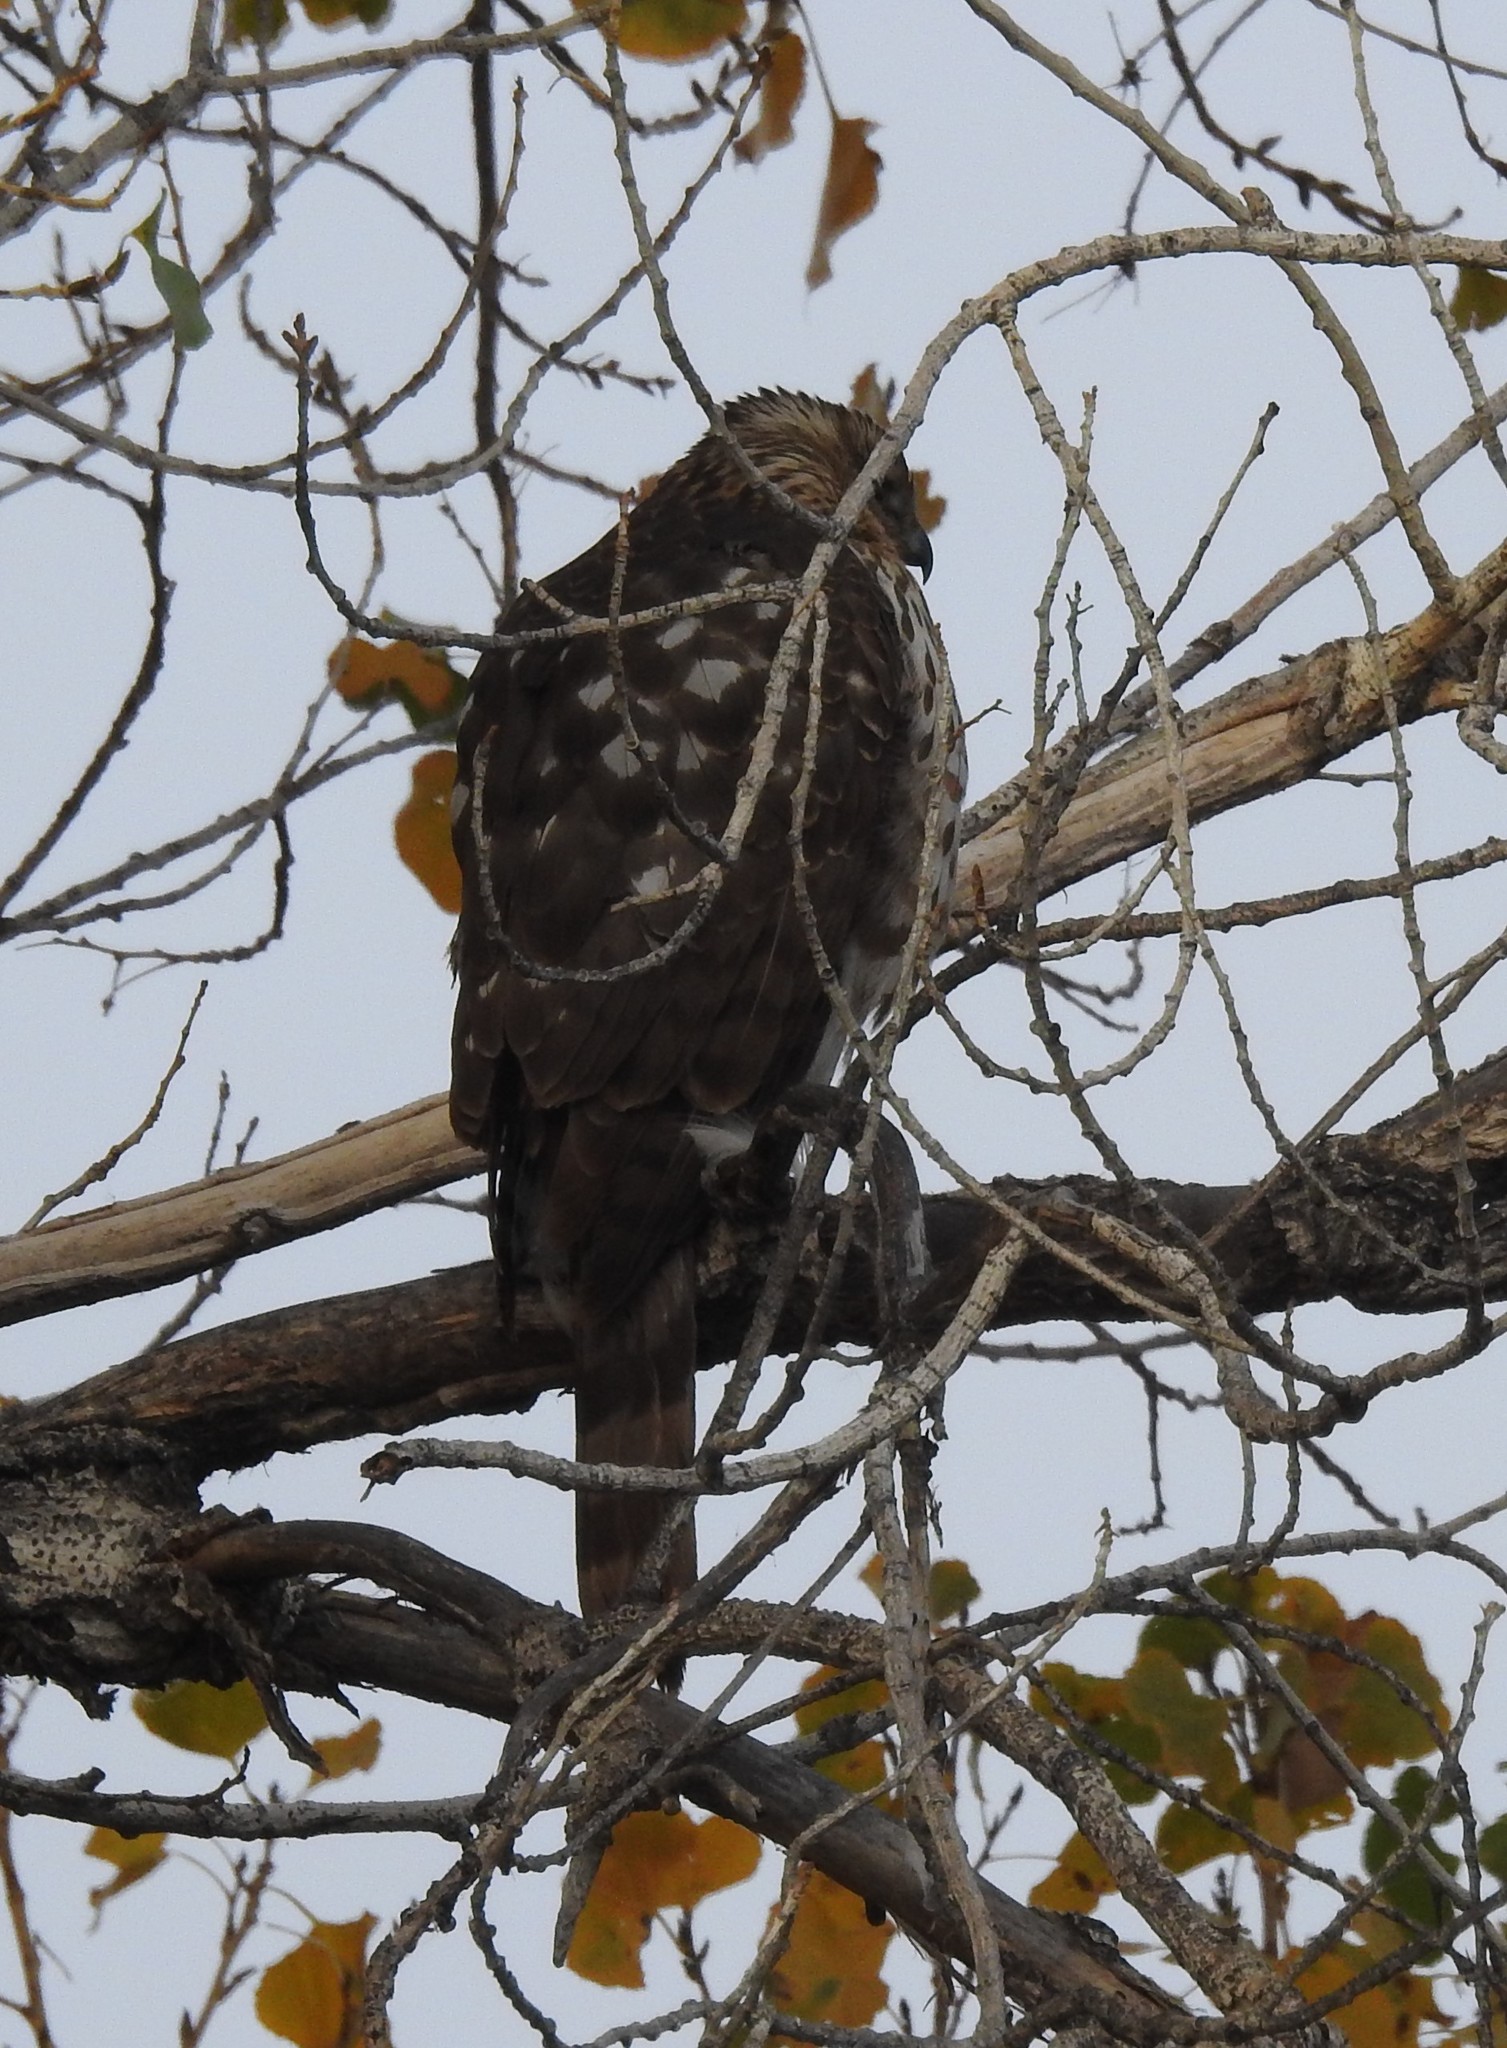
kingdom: Animalia
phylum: Chordata
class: Aves
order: Accipitriformes
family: Accipitridae
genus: Accipiter
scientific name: Accipiter cooperii
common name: Cooper's hawk
